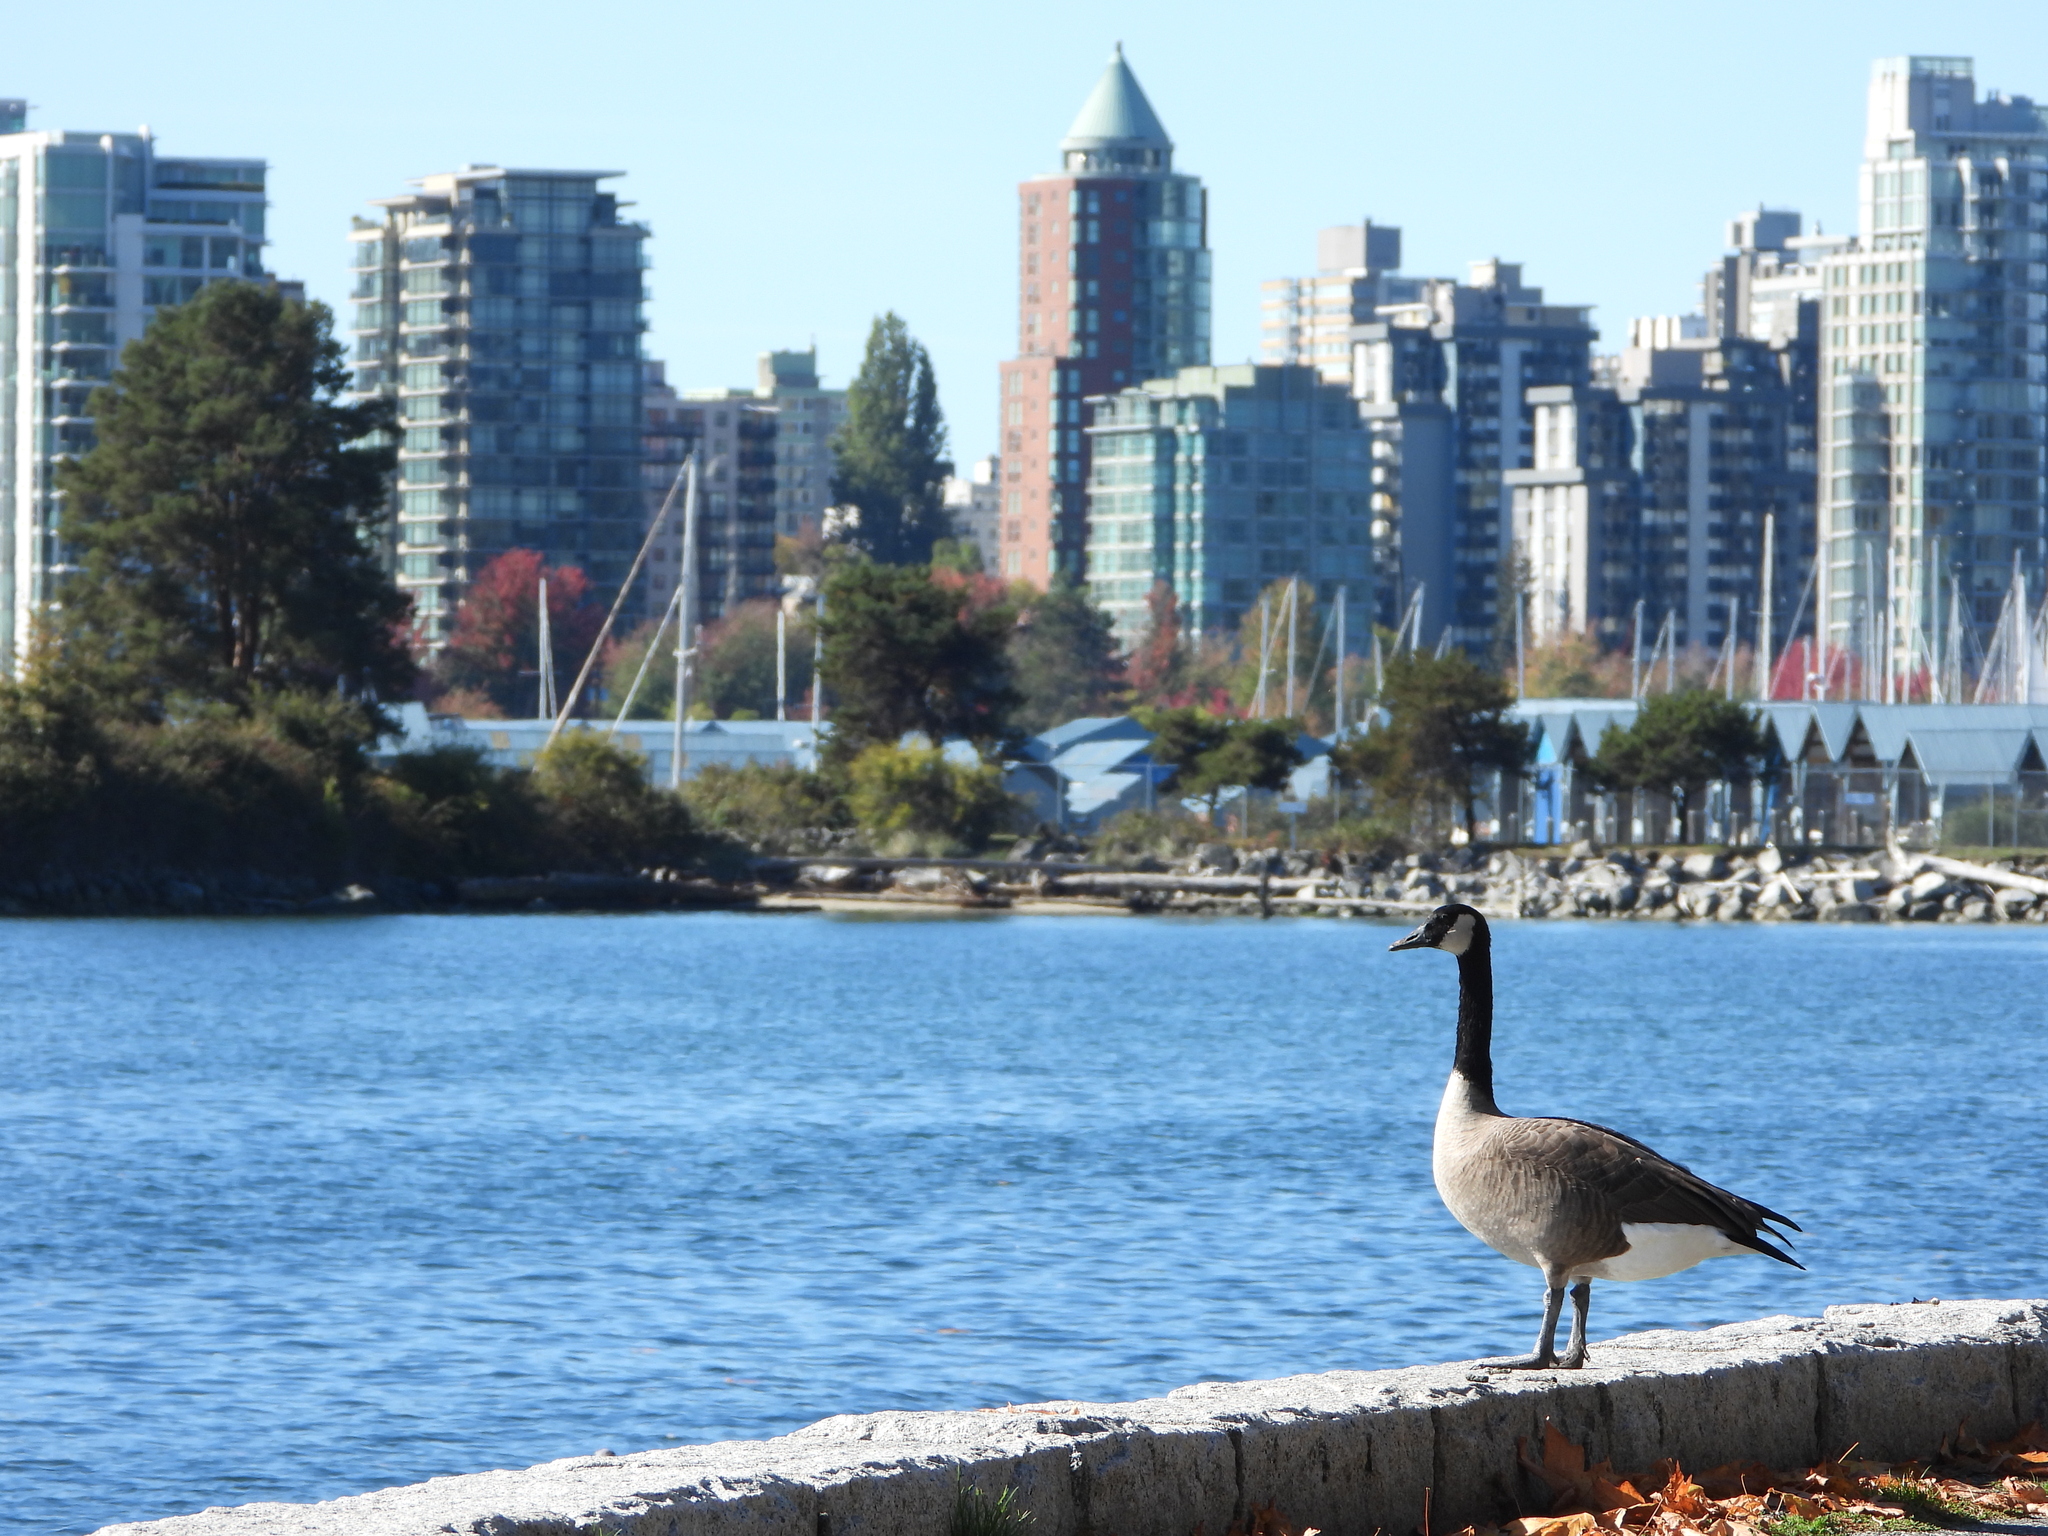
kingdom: Animalia
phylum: Chordata
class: Aves
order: Anseriformes
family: Anatidae
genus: Branta
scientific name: Branta canadensis
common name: Canada goose
